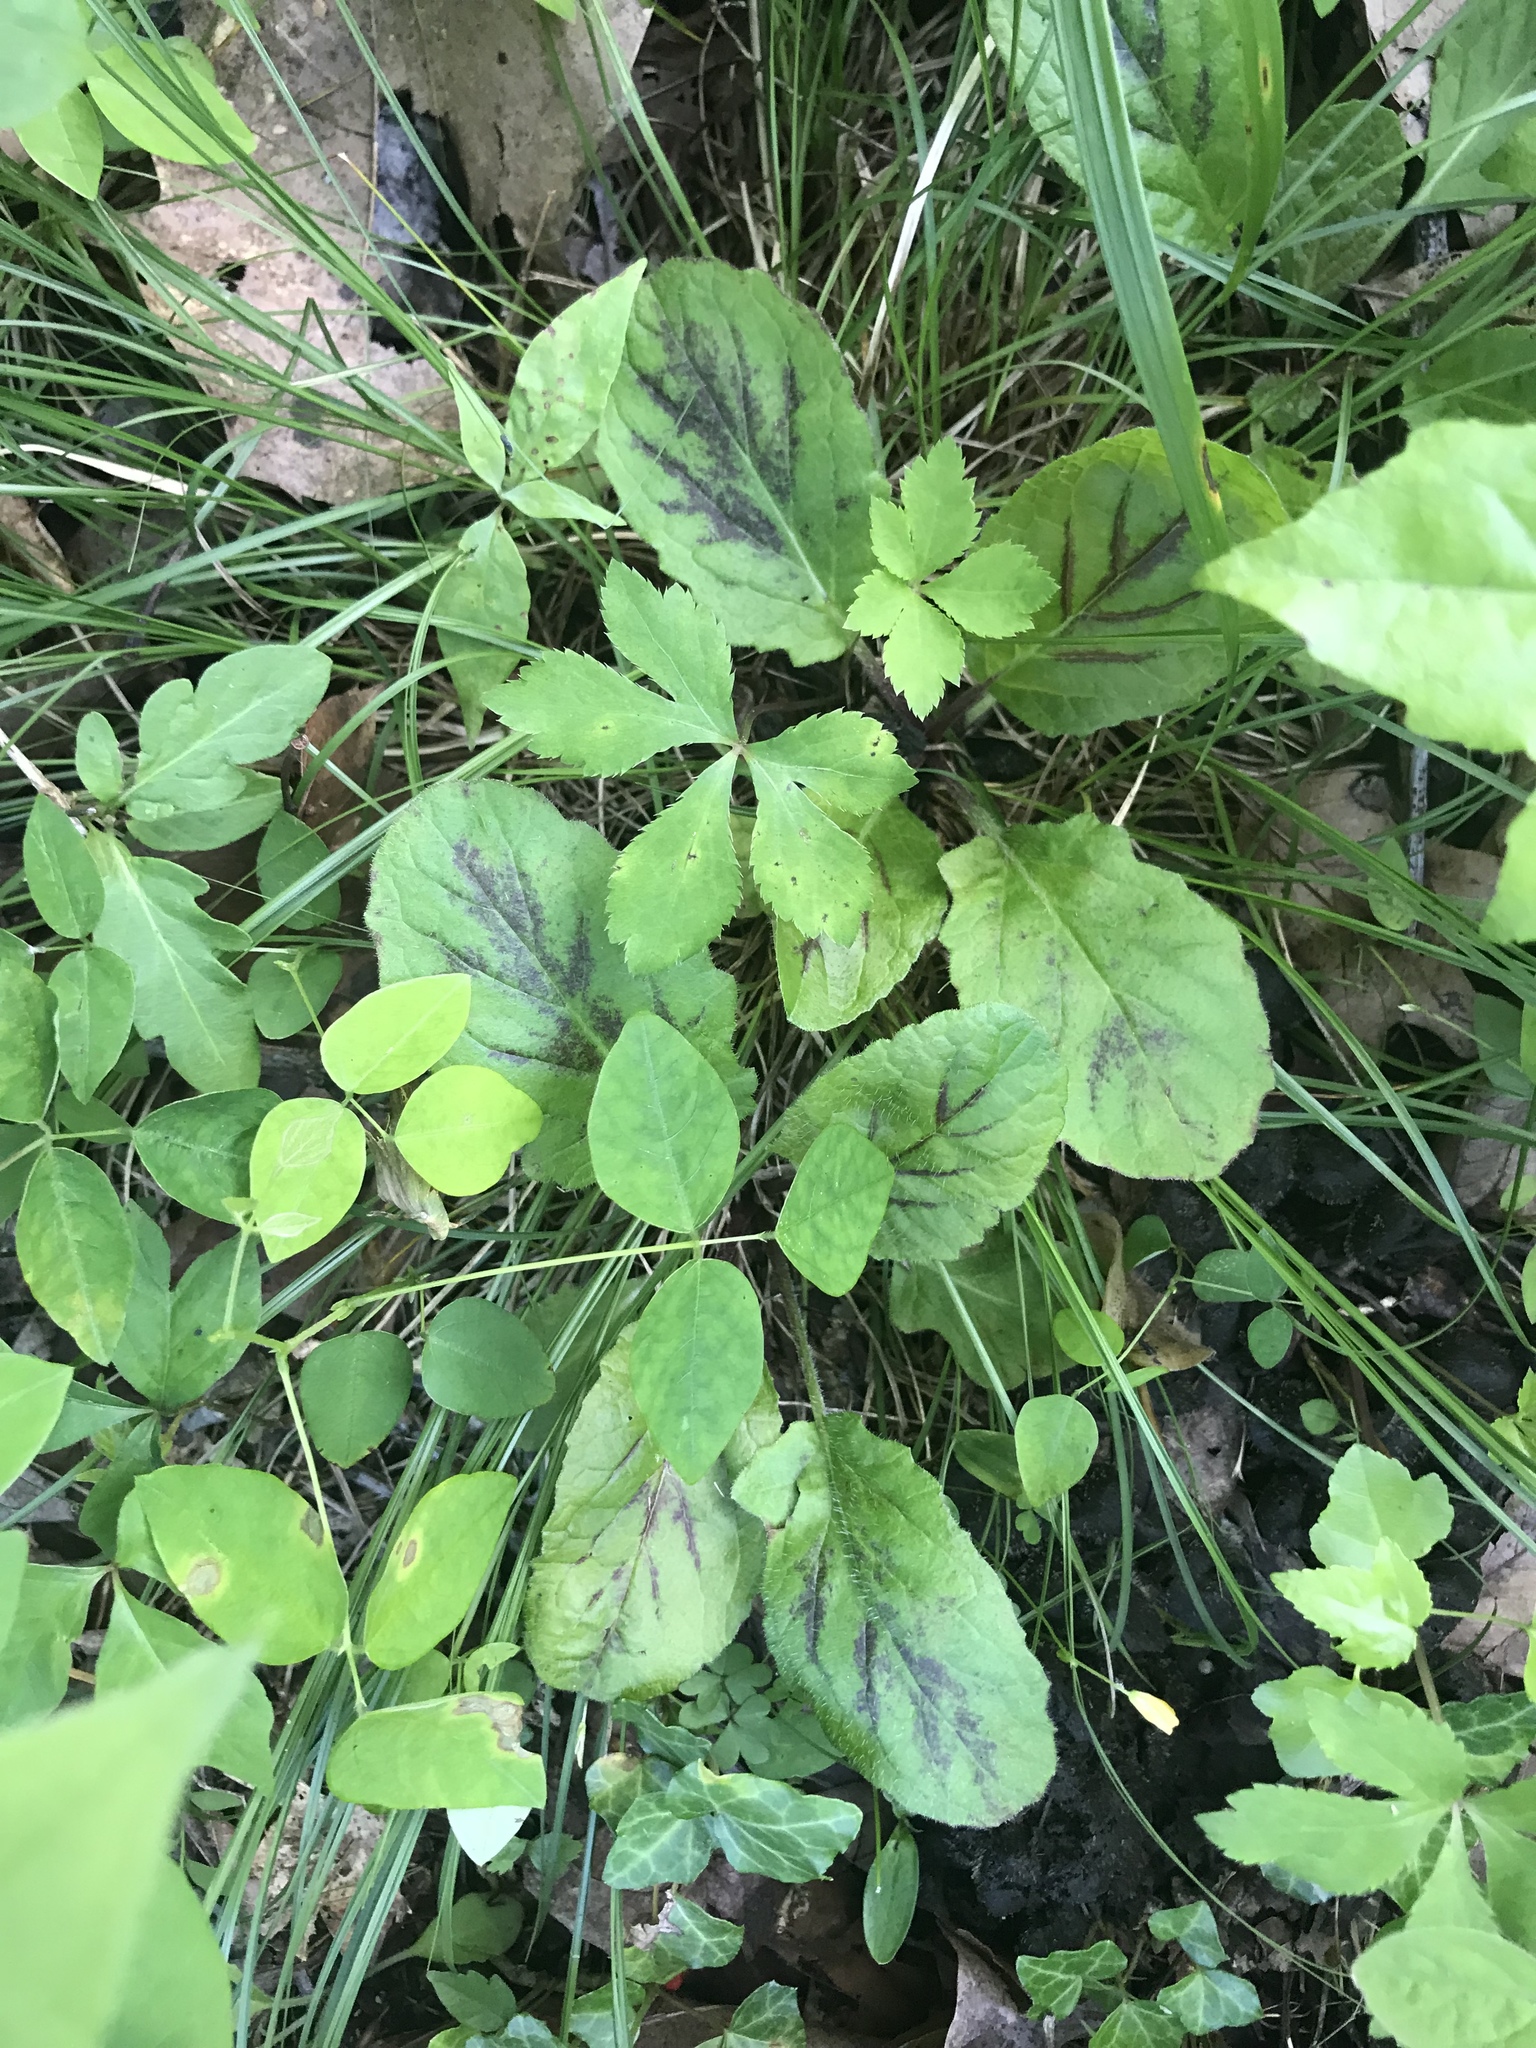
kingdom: Plantae
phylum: Tracheophyta
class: Magnoliopsida
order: Lamiales
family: Lamiaceae
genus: Salvia
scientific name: Salvia lyrata
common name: Cancerweed
